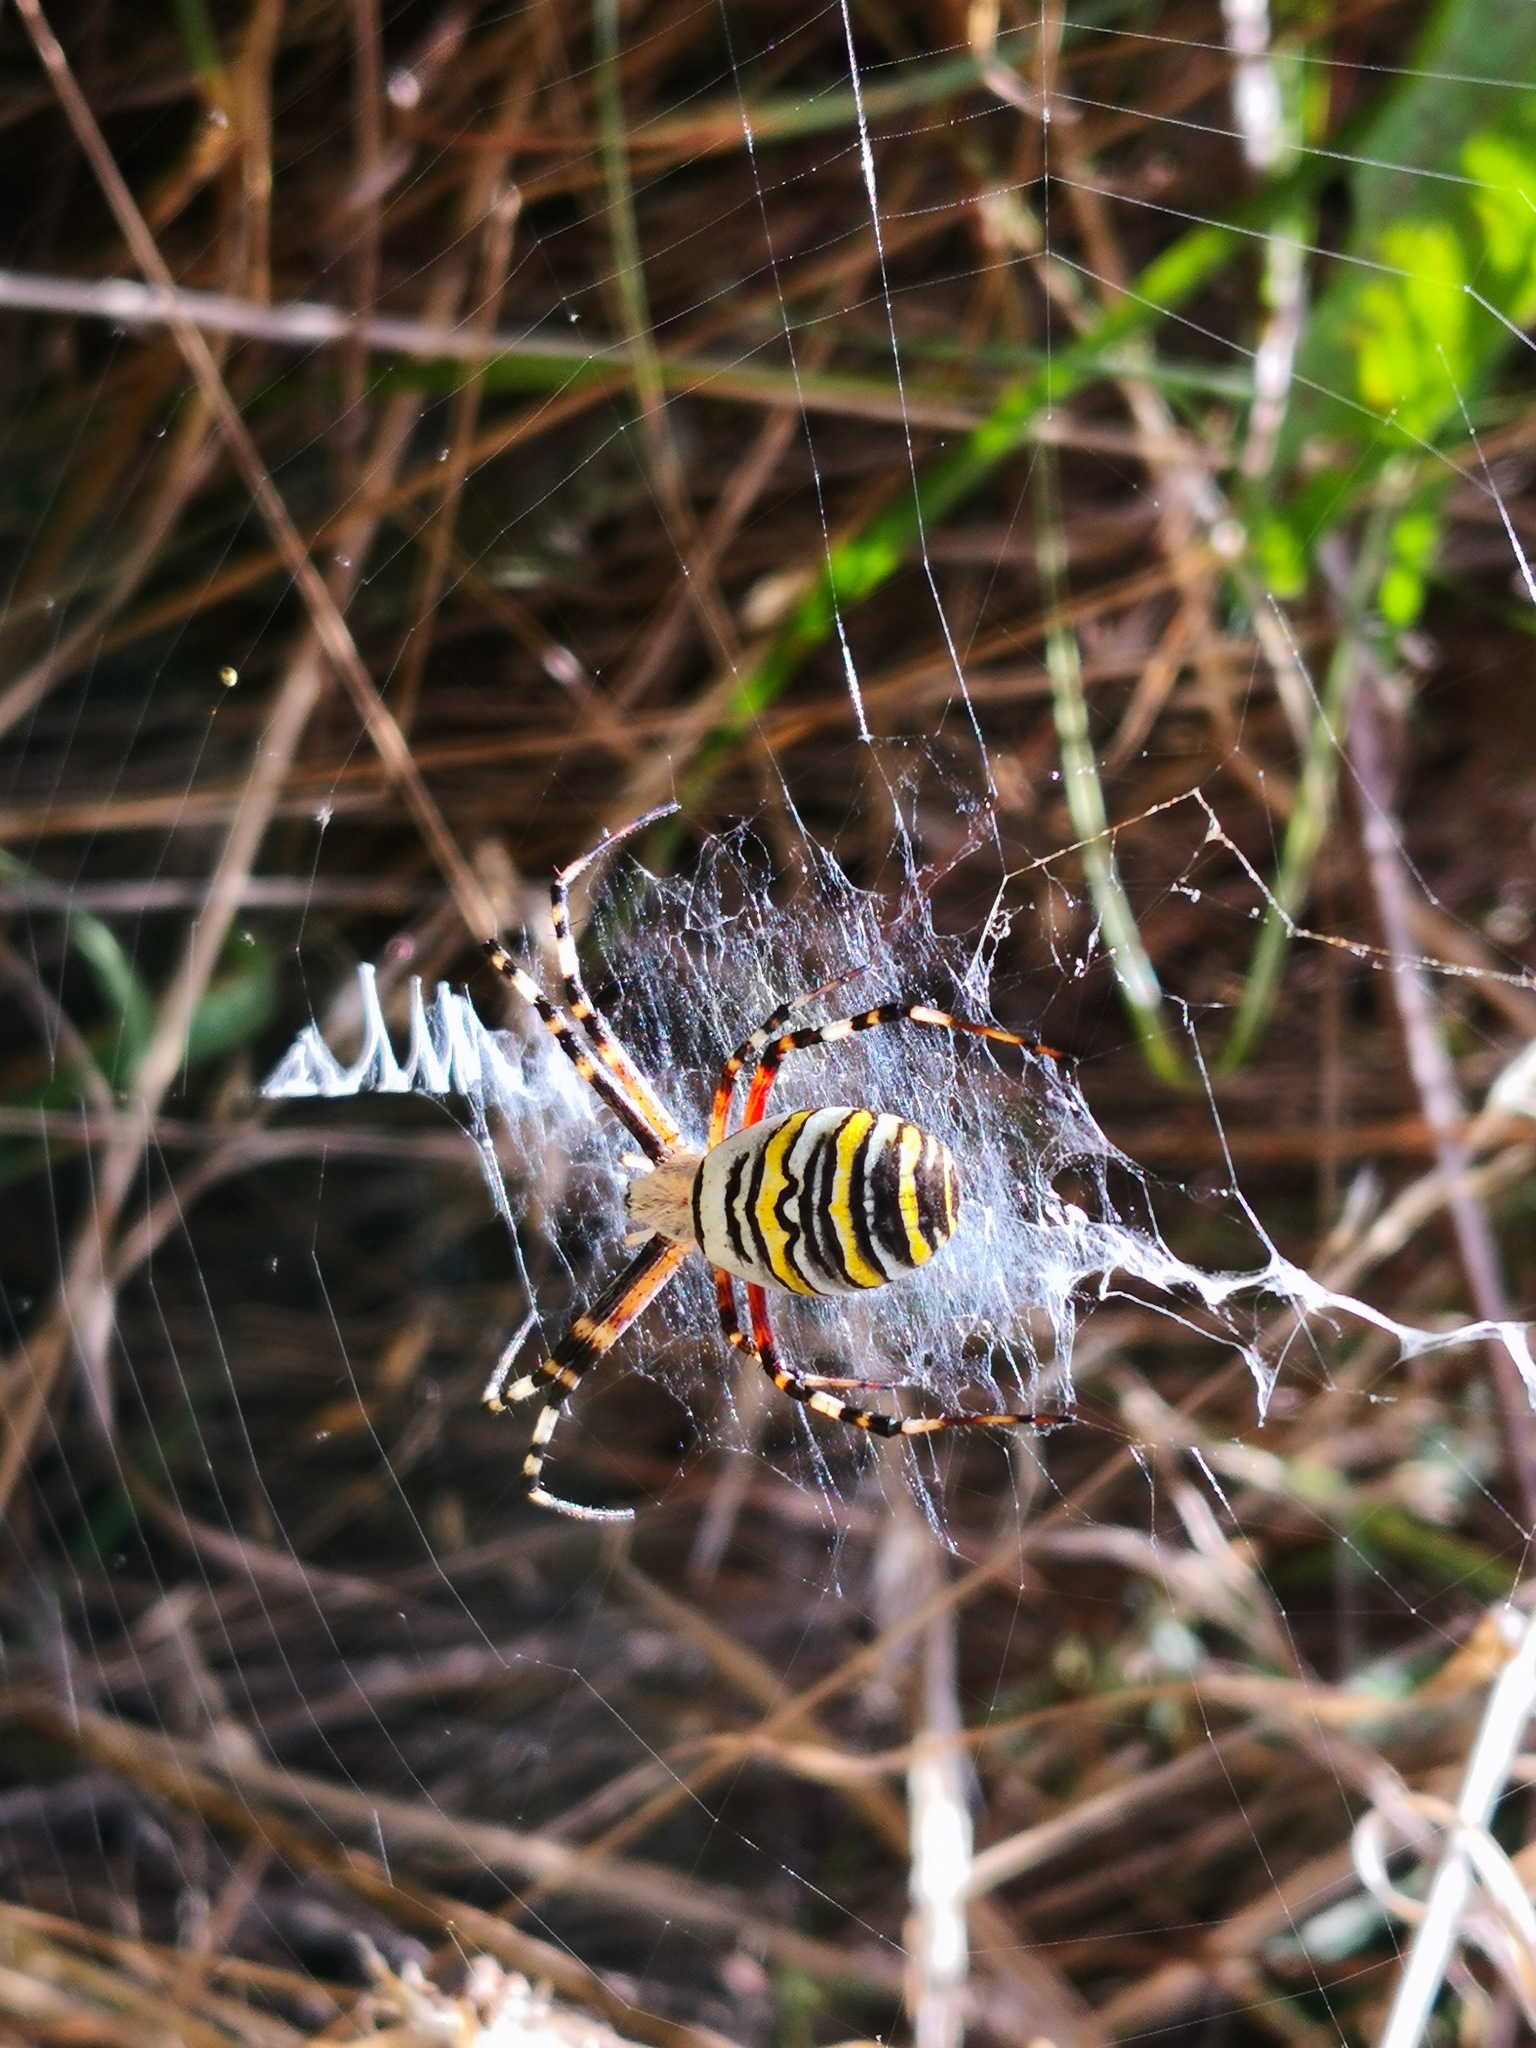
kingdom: Animalia
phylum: Arthropoda
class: Arachnida
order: Araneae
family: Araneidae
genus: Argiope
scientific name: Argiope bruennichi
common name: Wasp spider
